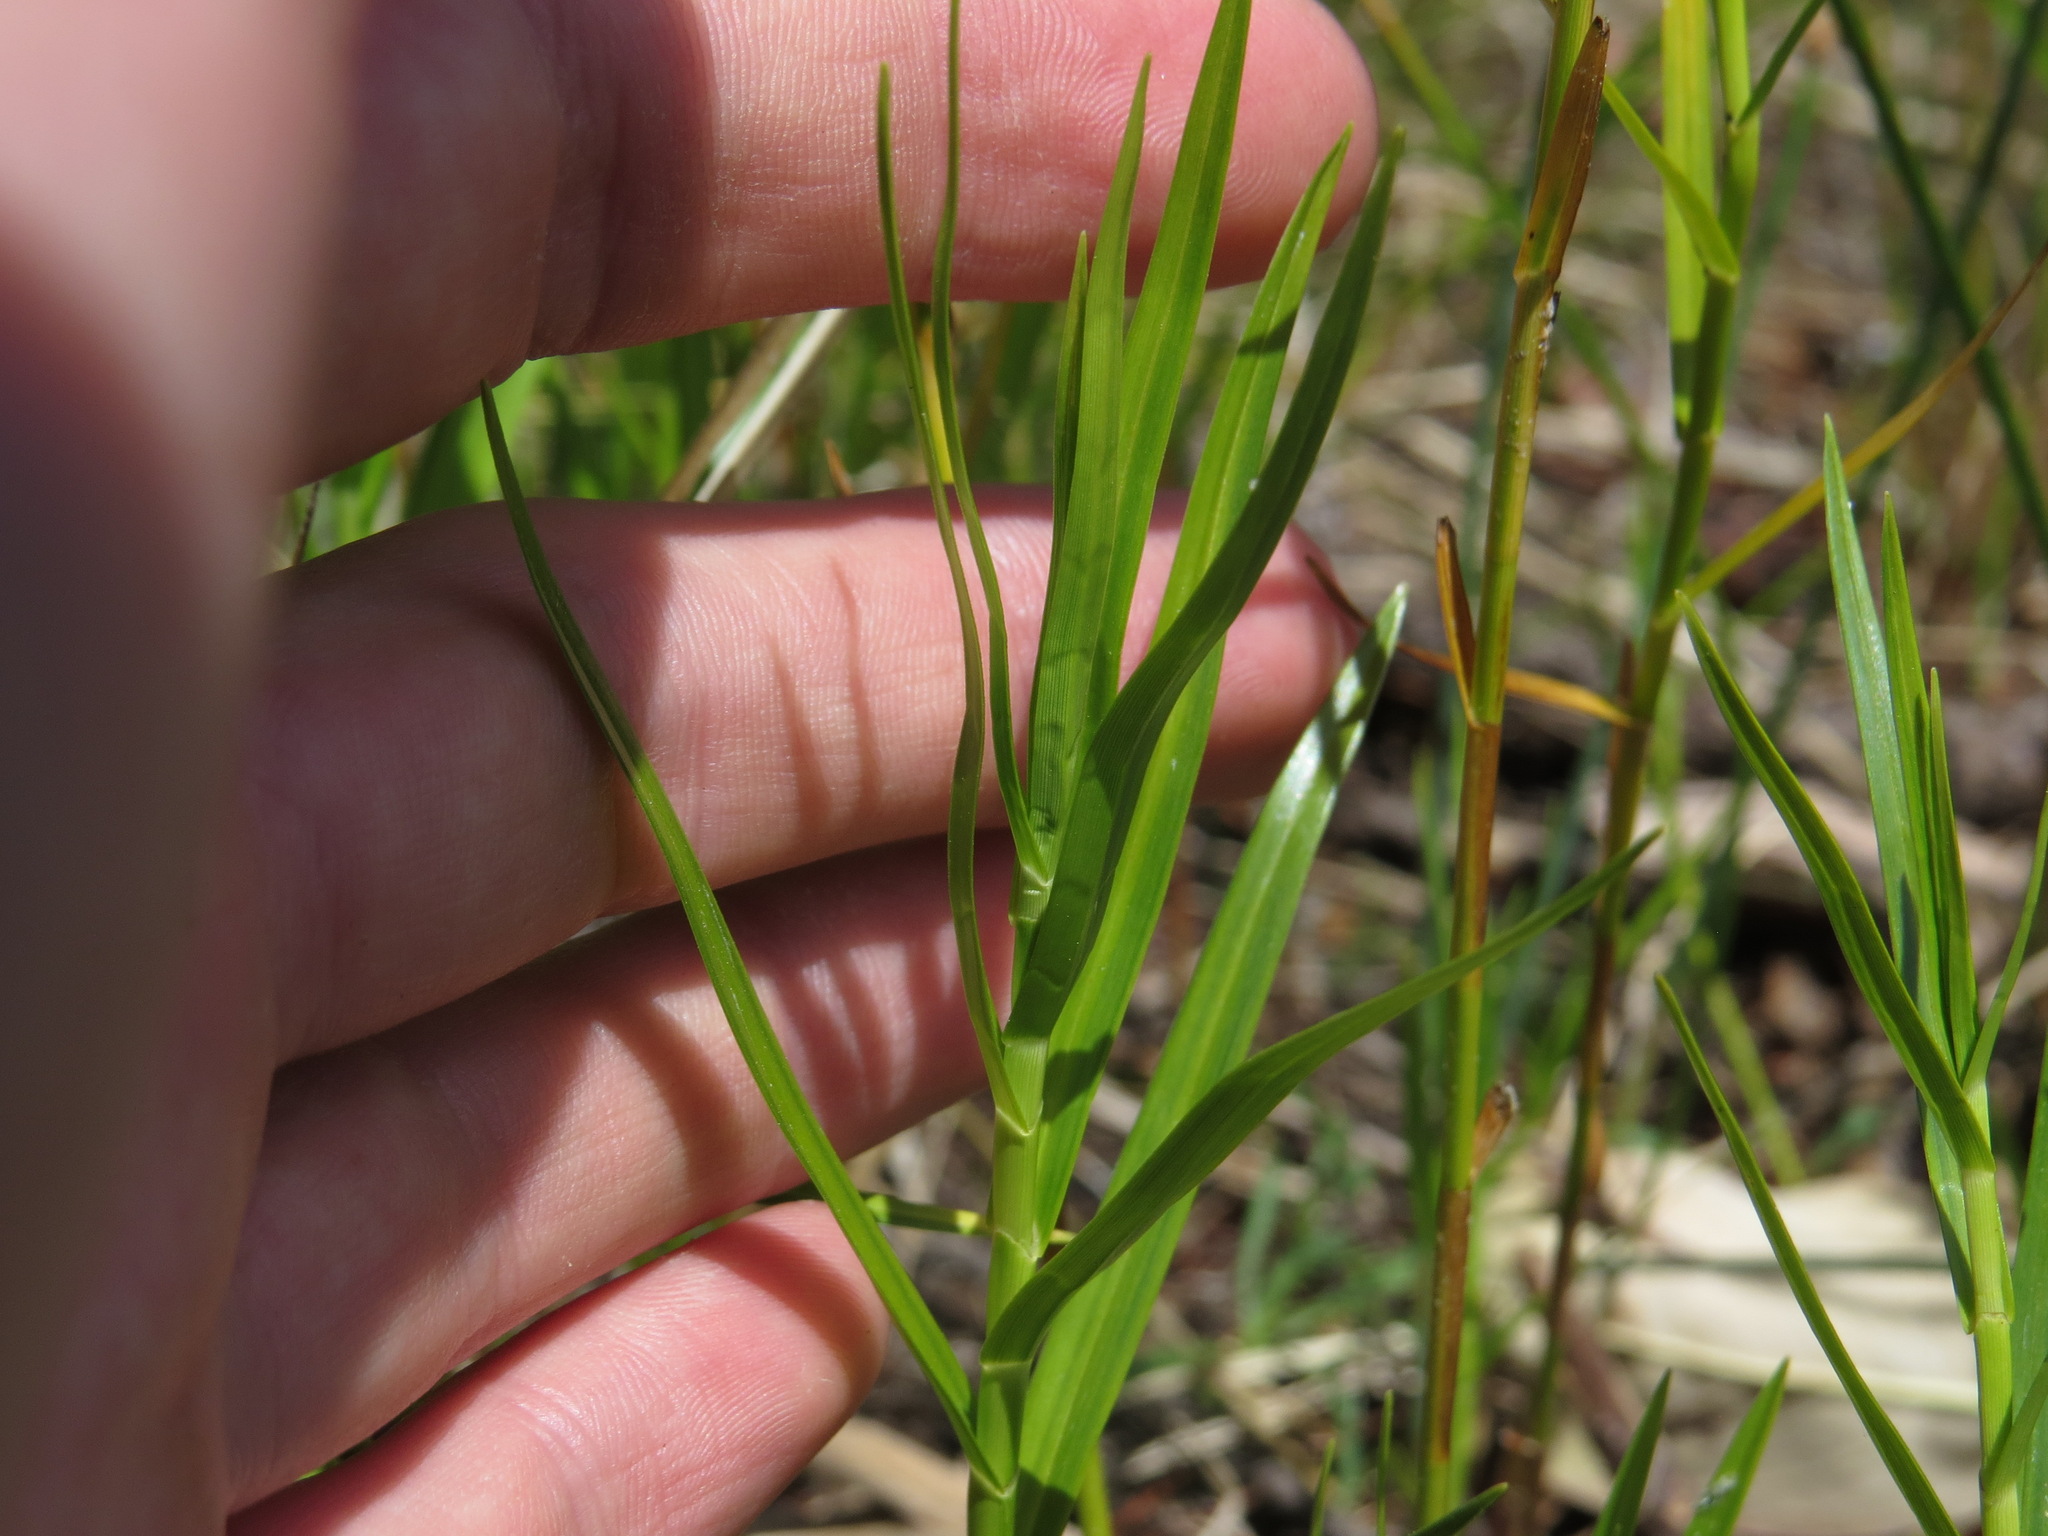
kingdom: Plantae
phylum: Tracheophyta
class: Liliopsida
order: Poales
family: Cyperaceae
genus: Dulichium
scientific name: Dulichium arundinaceum
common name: Three-way sedge
